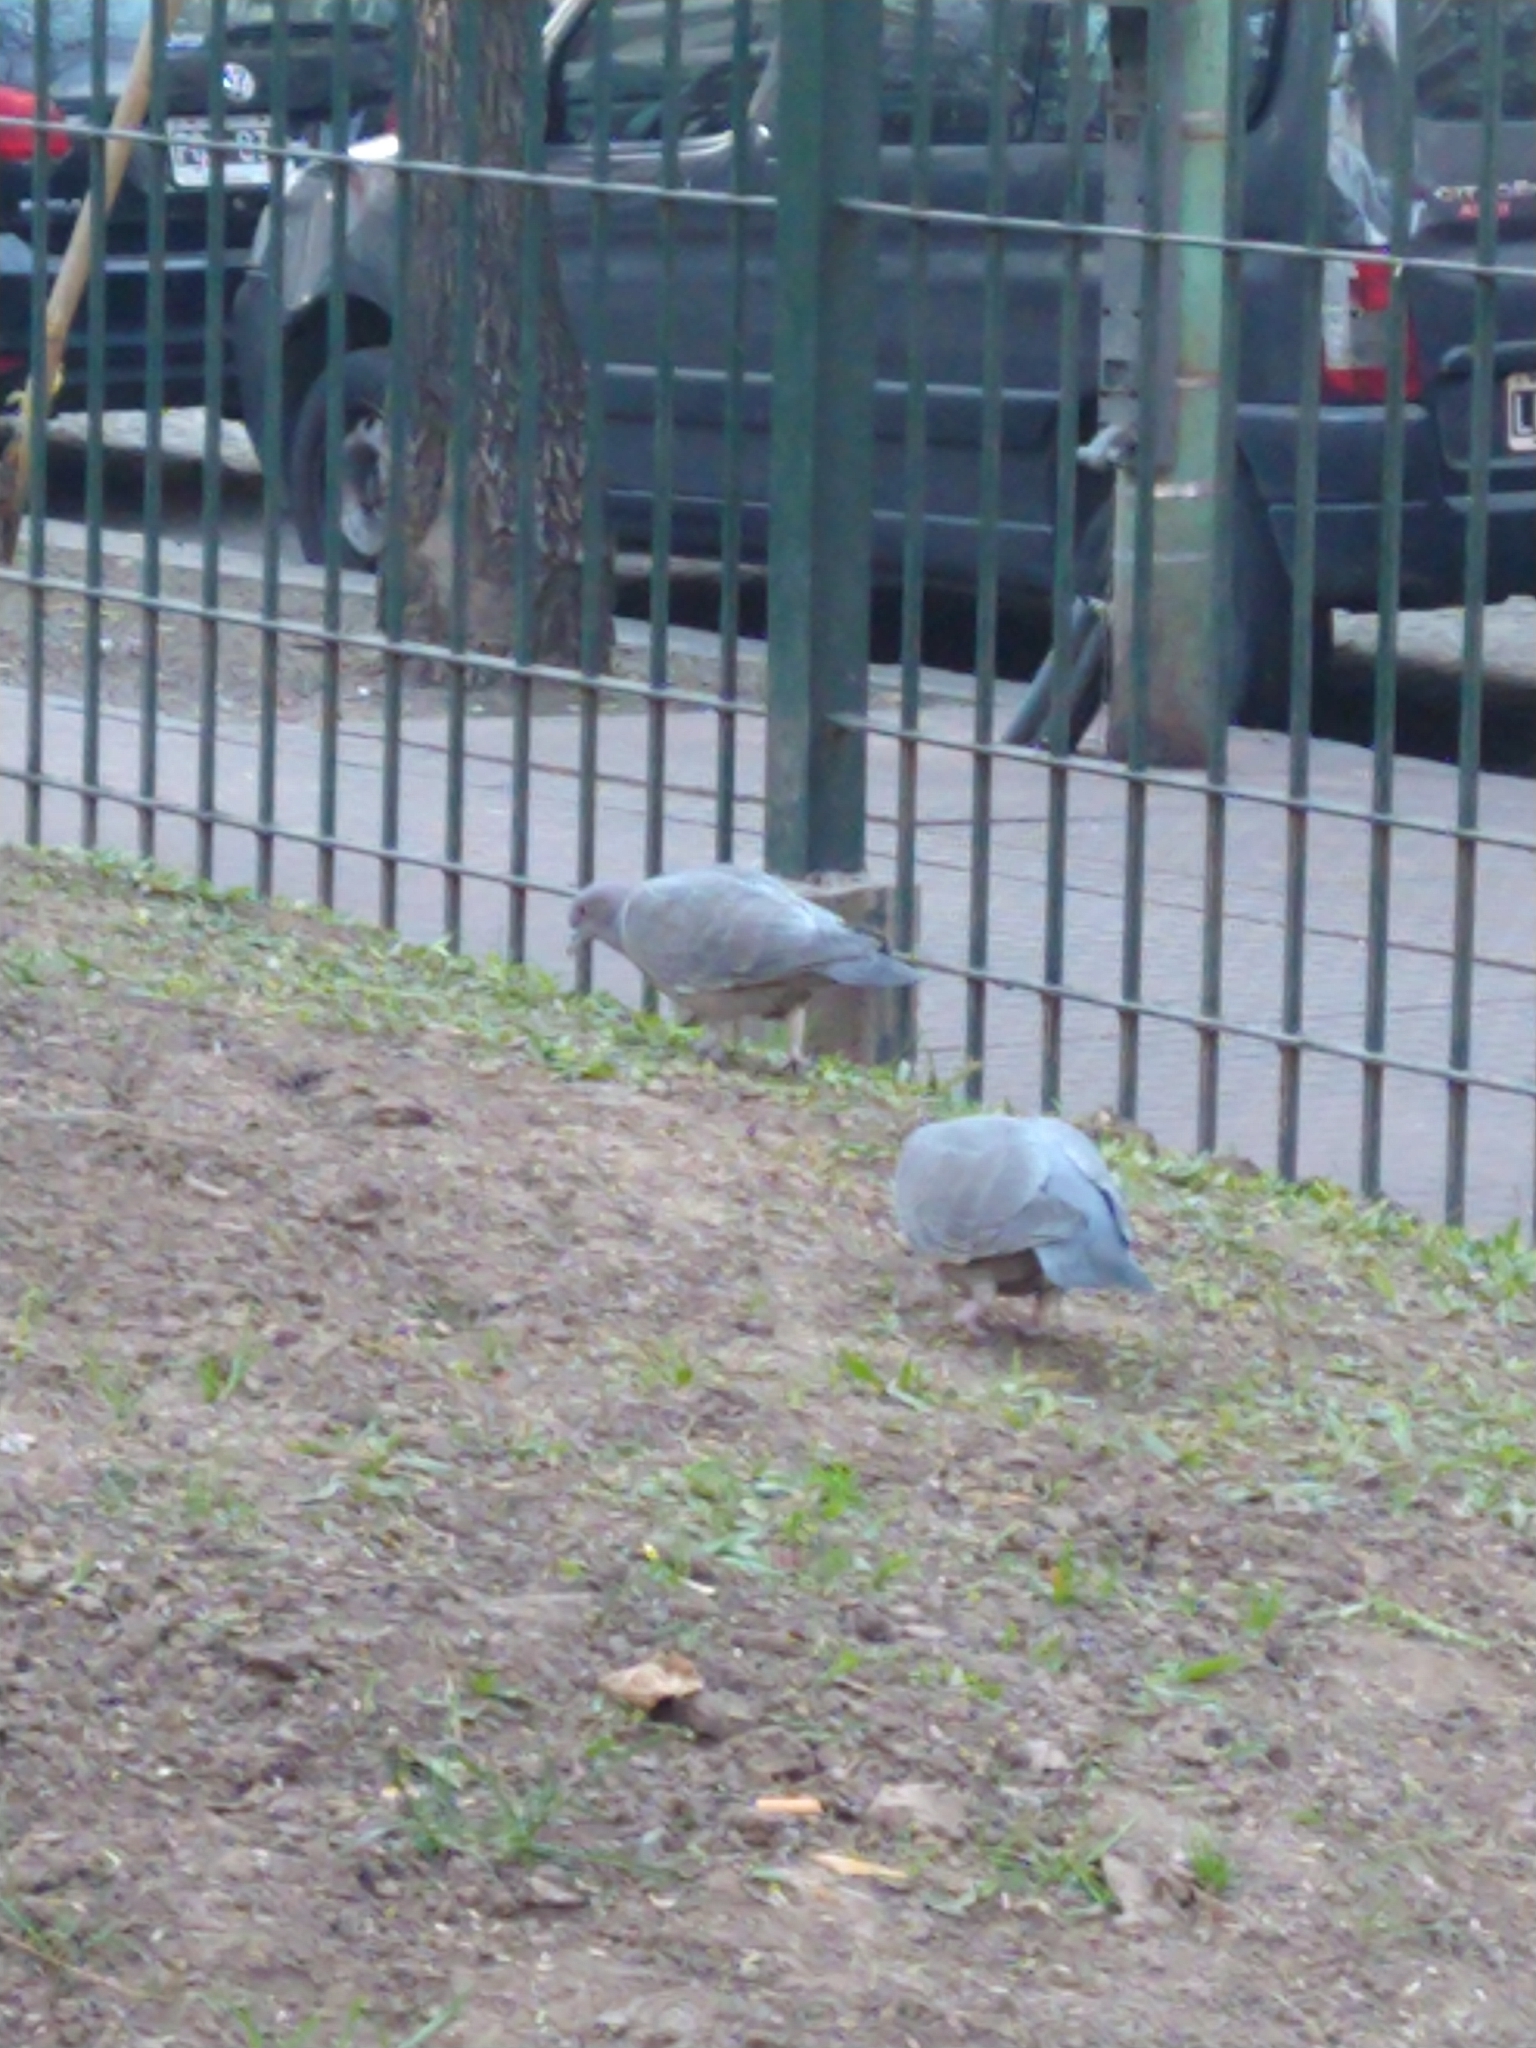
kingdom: Animalia
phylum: Chordata
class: Aves
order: Columbiformes
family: Columbidae
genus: Patagioenas
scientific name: Patagioenas picazuro
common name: Picazuro pigeon
